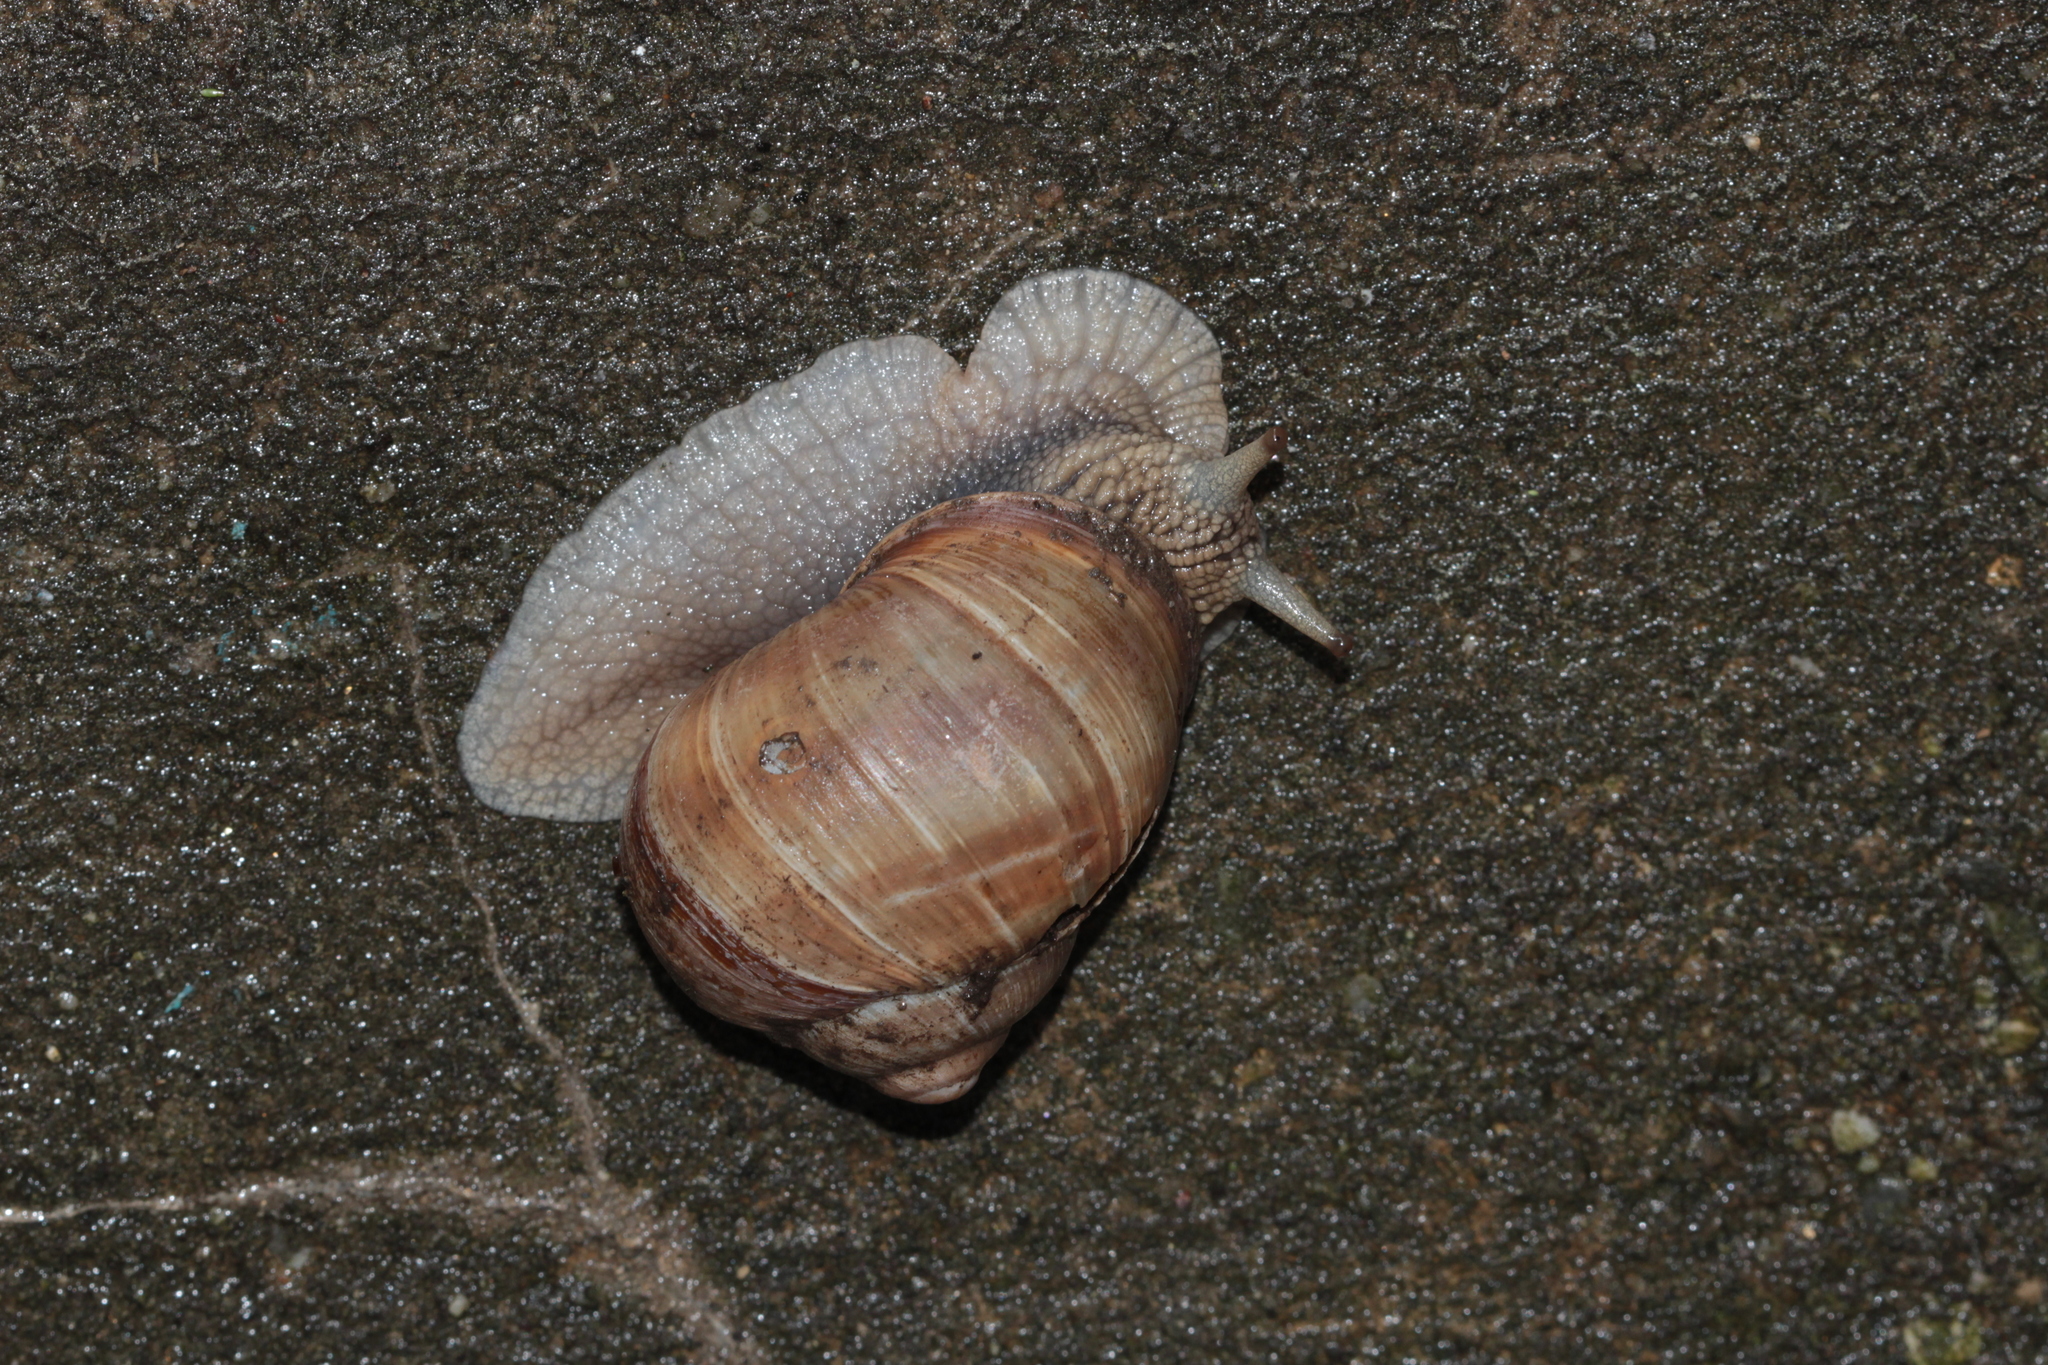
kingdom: Animalia
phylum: Mollusca
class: Gastropoda
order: Stylommatophora
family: Helicidae
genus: Helix
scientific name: Helix pomatia
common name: Roman snail
